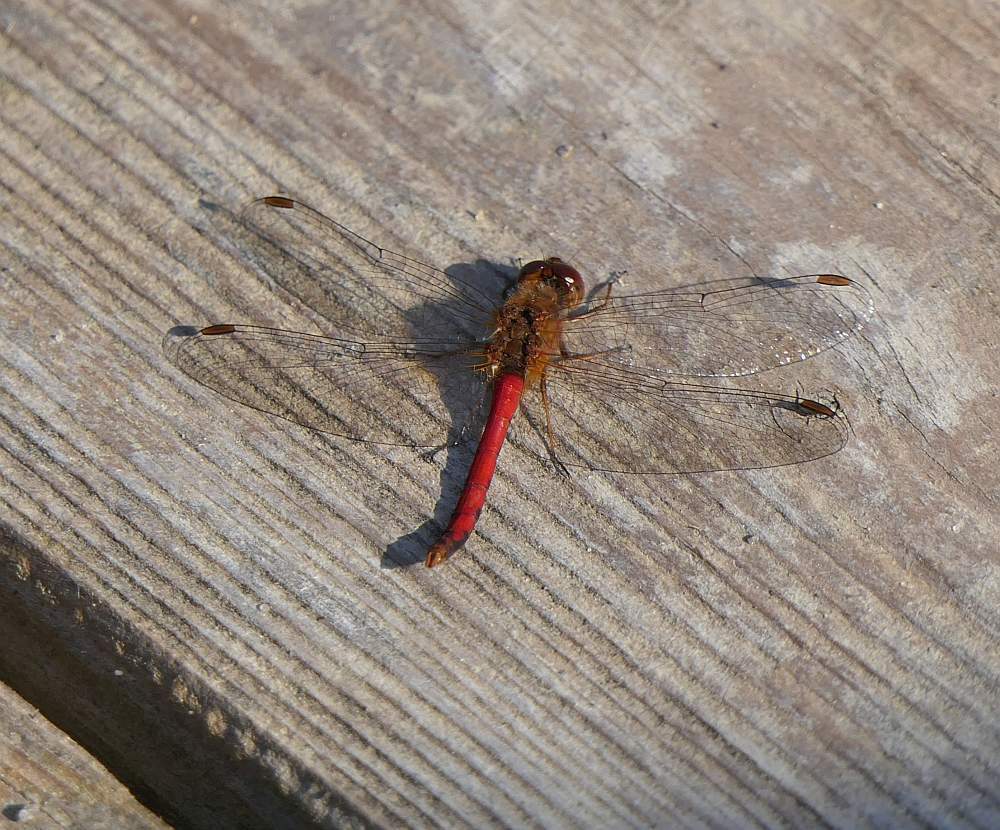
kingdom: Animalia
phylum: Arthropoda
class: Insecta
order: Odonata
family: Libellulidae
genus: Sympetrum
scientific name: Sympetrum vicinum
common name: Autumn meadowhawk
